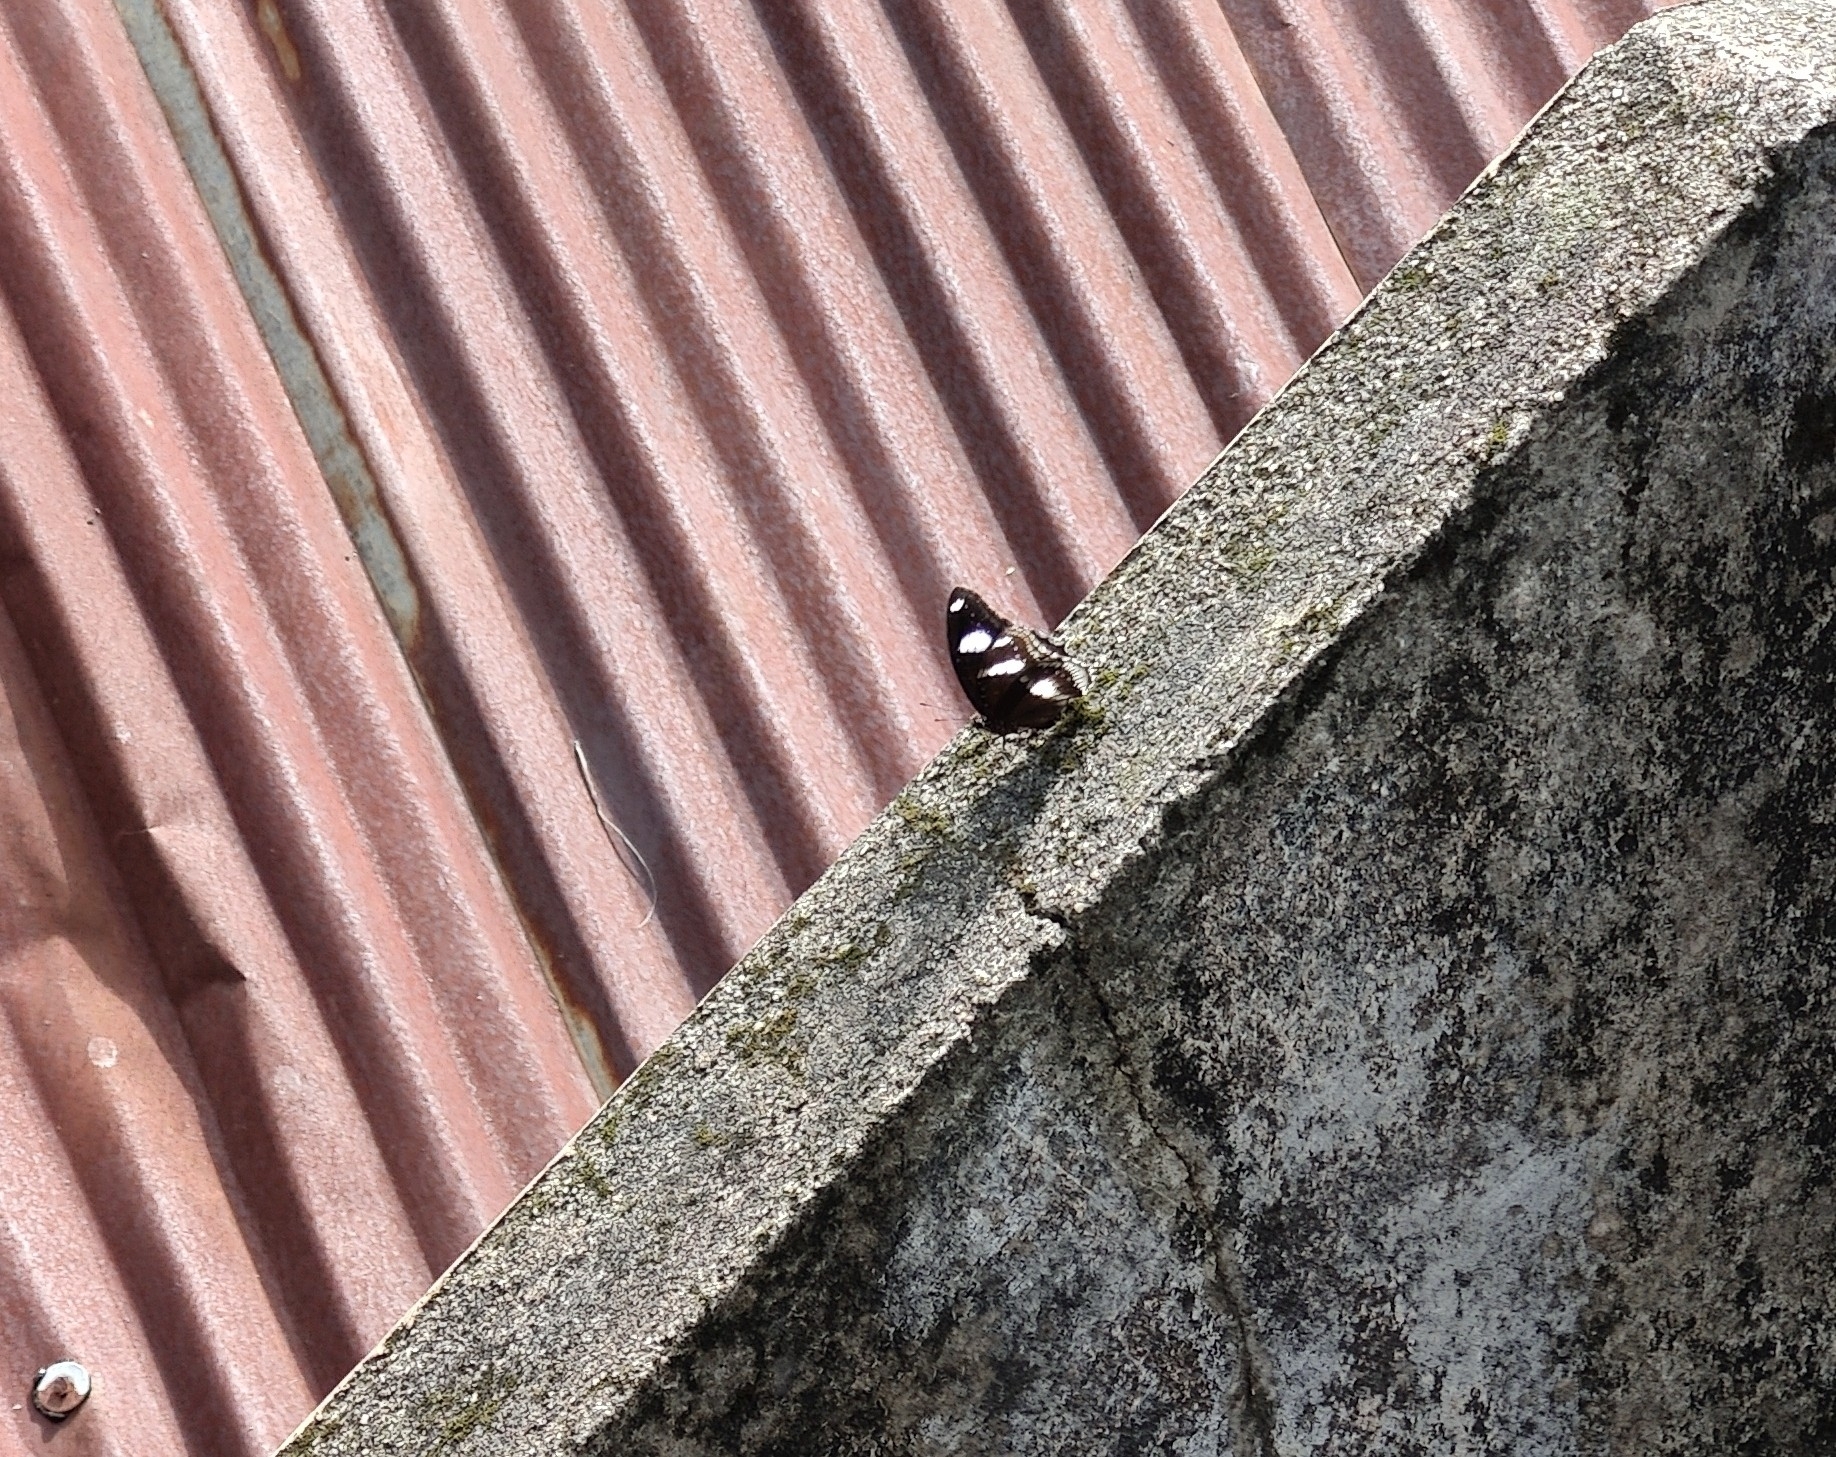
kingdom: Animalia
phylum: Arthropoda
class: Insecta
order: Lepidoptera
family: Nymphalidae
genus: Hypolimnas
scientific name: Hypolimnas bolina
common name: Great eggfly
